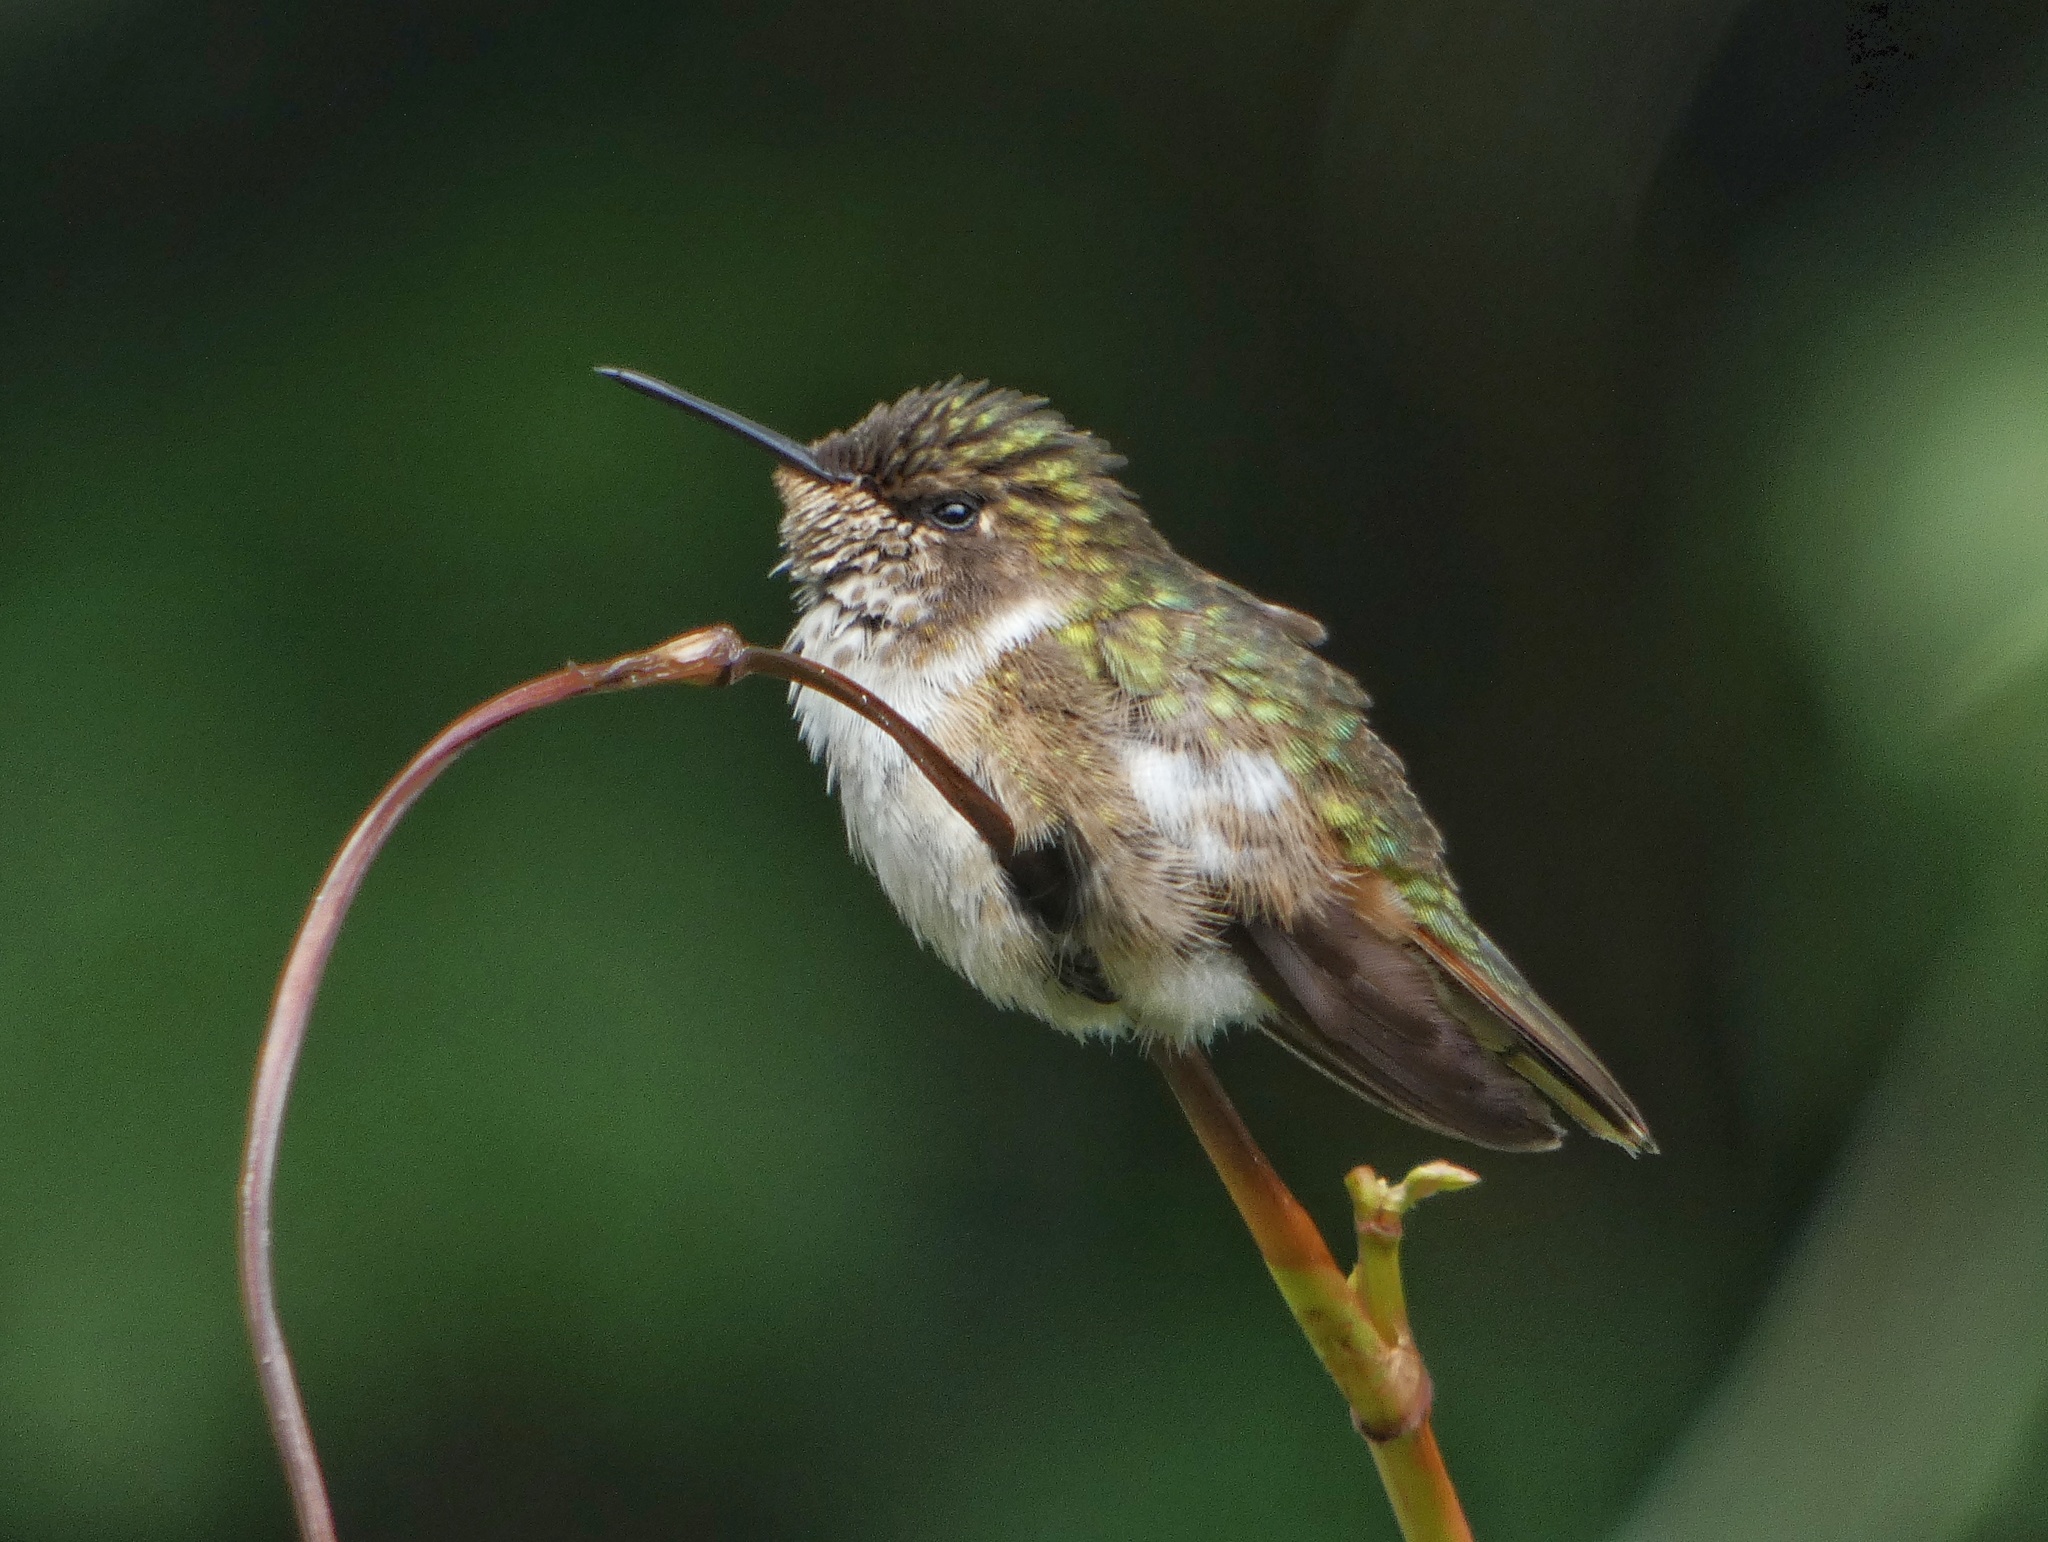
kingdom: Animalia
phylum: Chordata
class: Aves
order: Apodiformes
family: Trochilidae
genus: Selasphorus
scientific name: Selasphorus flammula
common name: Volcano hummingbird
